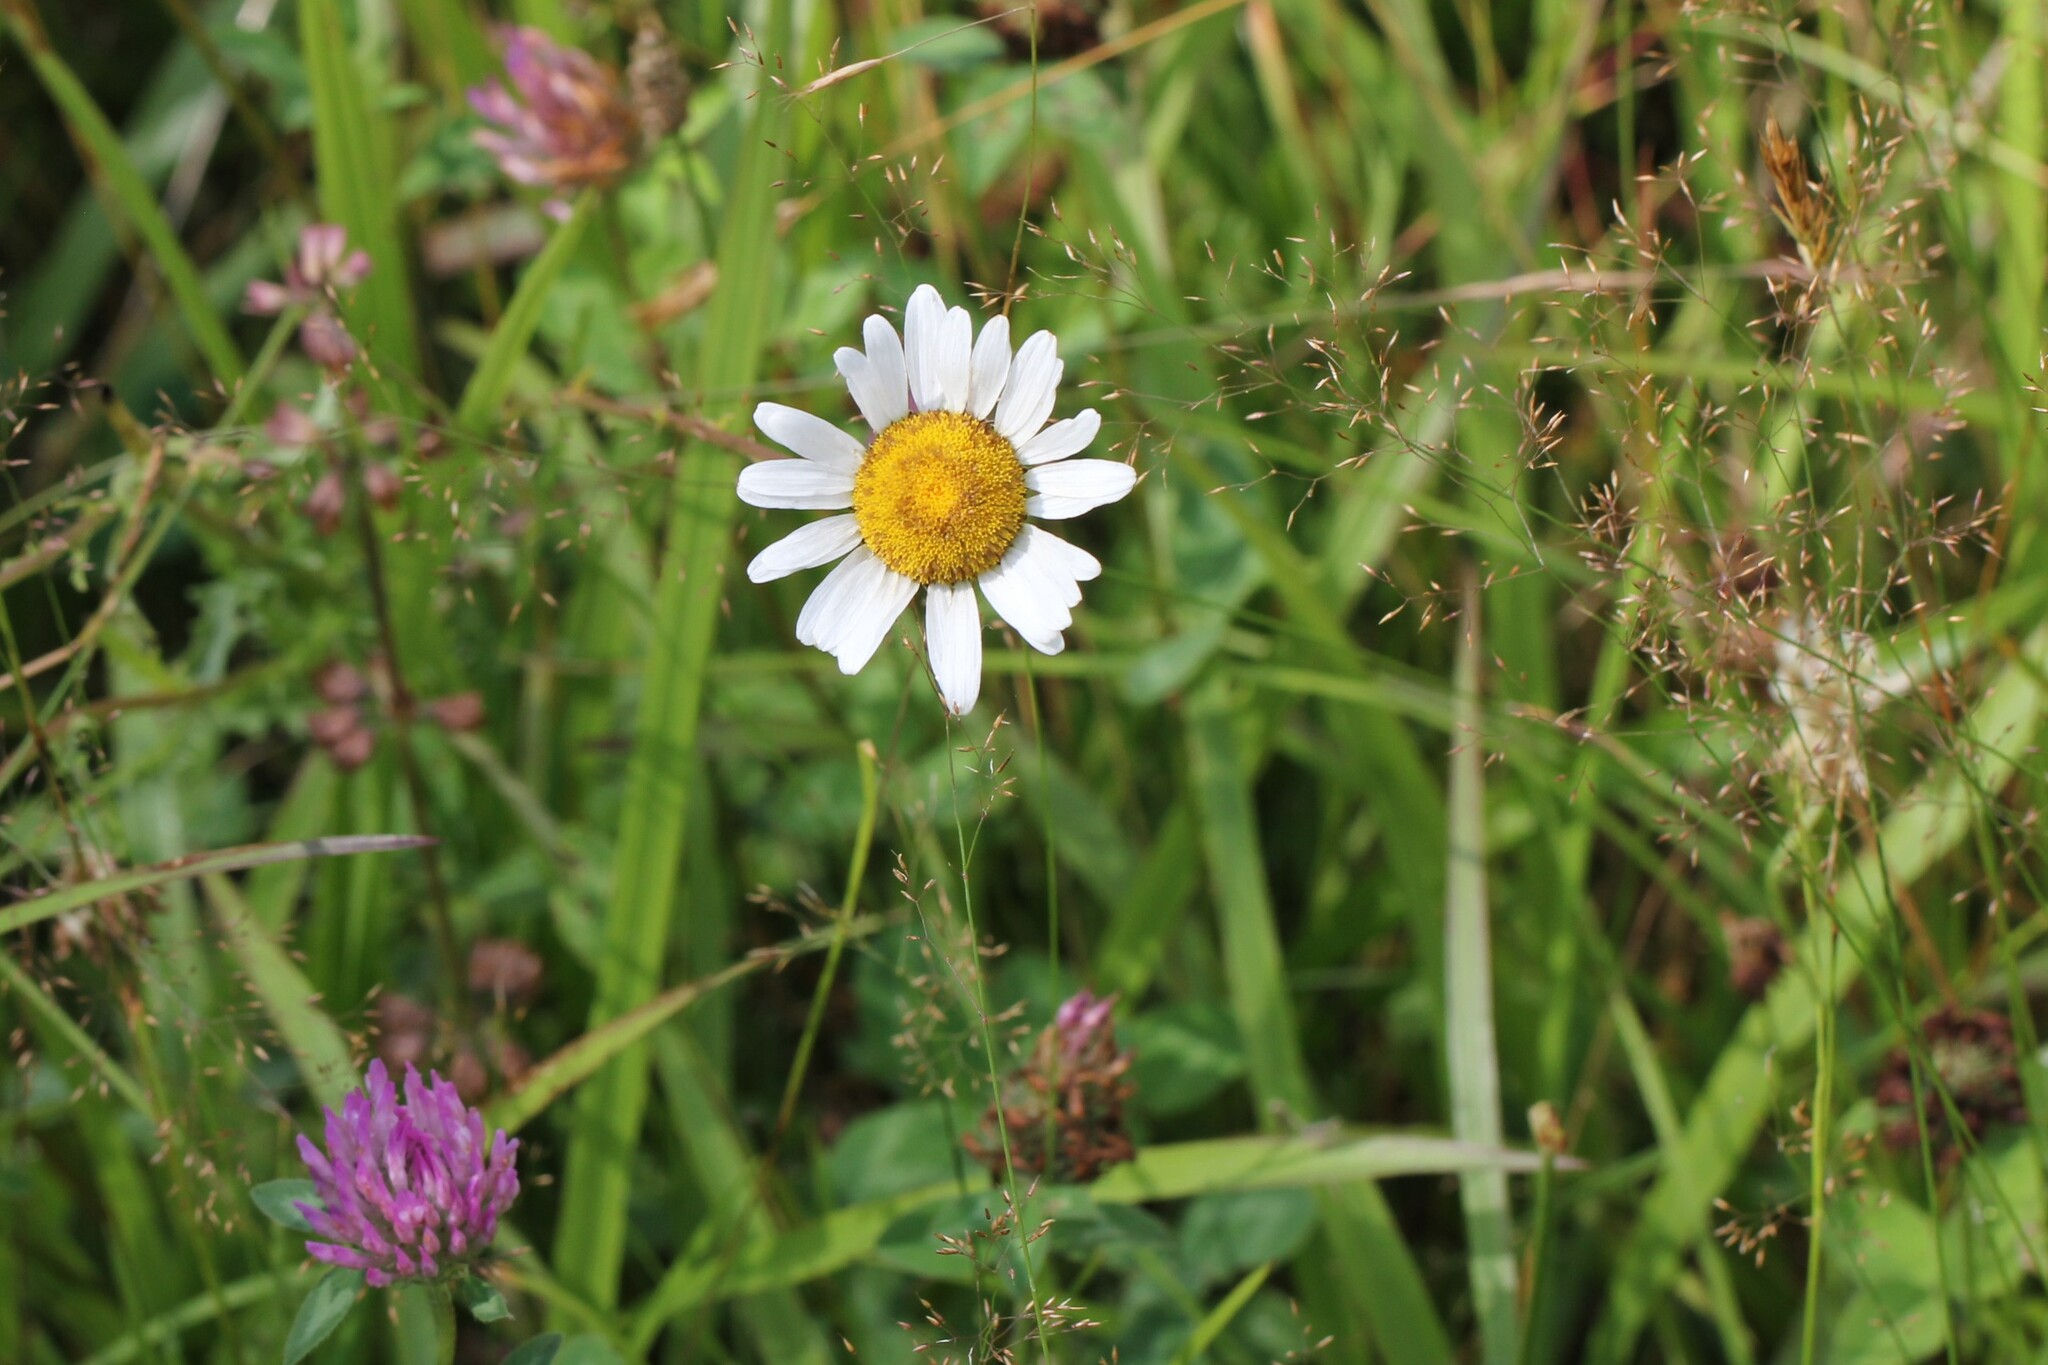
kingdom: Plantae
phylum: Tracheophyta
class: Magnoliopsida
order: Asterales
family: Asteraceae
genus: Leucanthemum
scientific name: Leucanthemum vulgare
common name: Oxeye daisy
